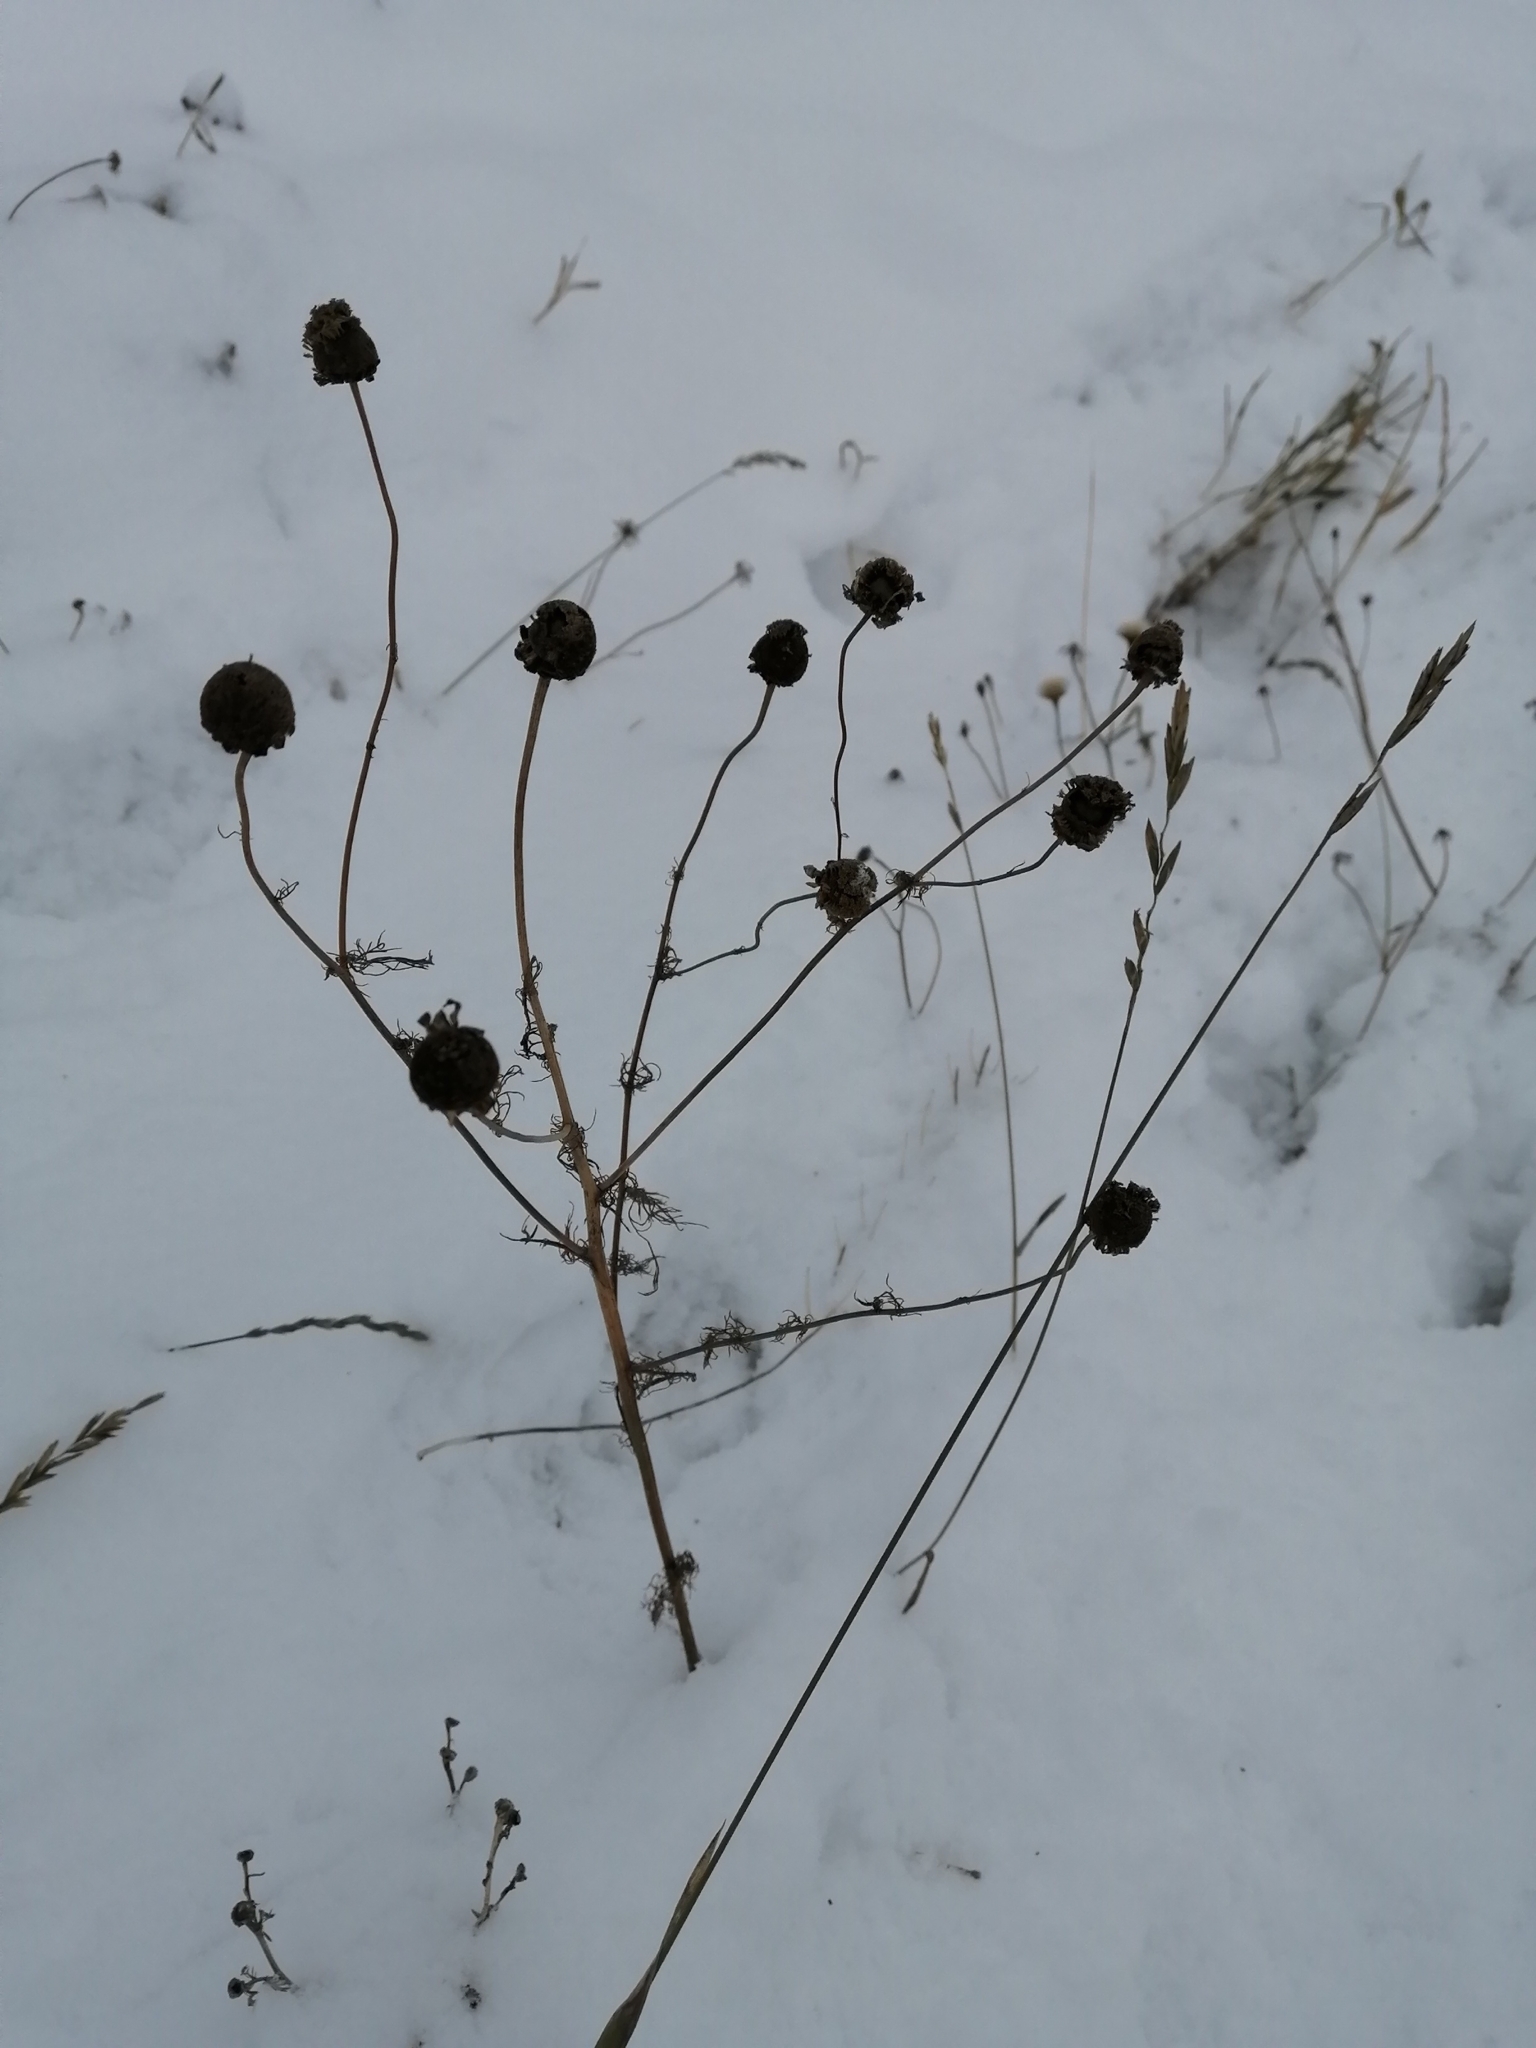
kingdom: Plantae
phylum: Tracheophyta
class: Magnoliopsida
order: Asterales
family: Asteraceae
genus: Tripleurospermum
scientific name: Tripleurospermum inodorum
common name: Scentless mayweed
